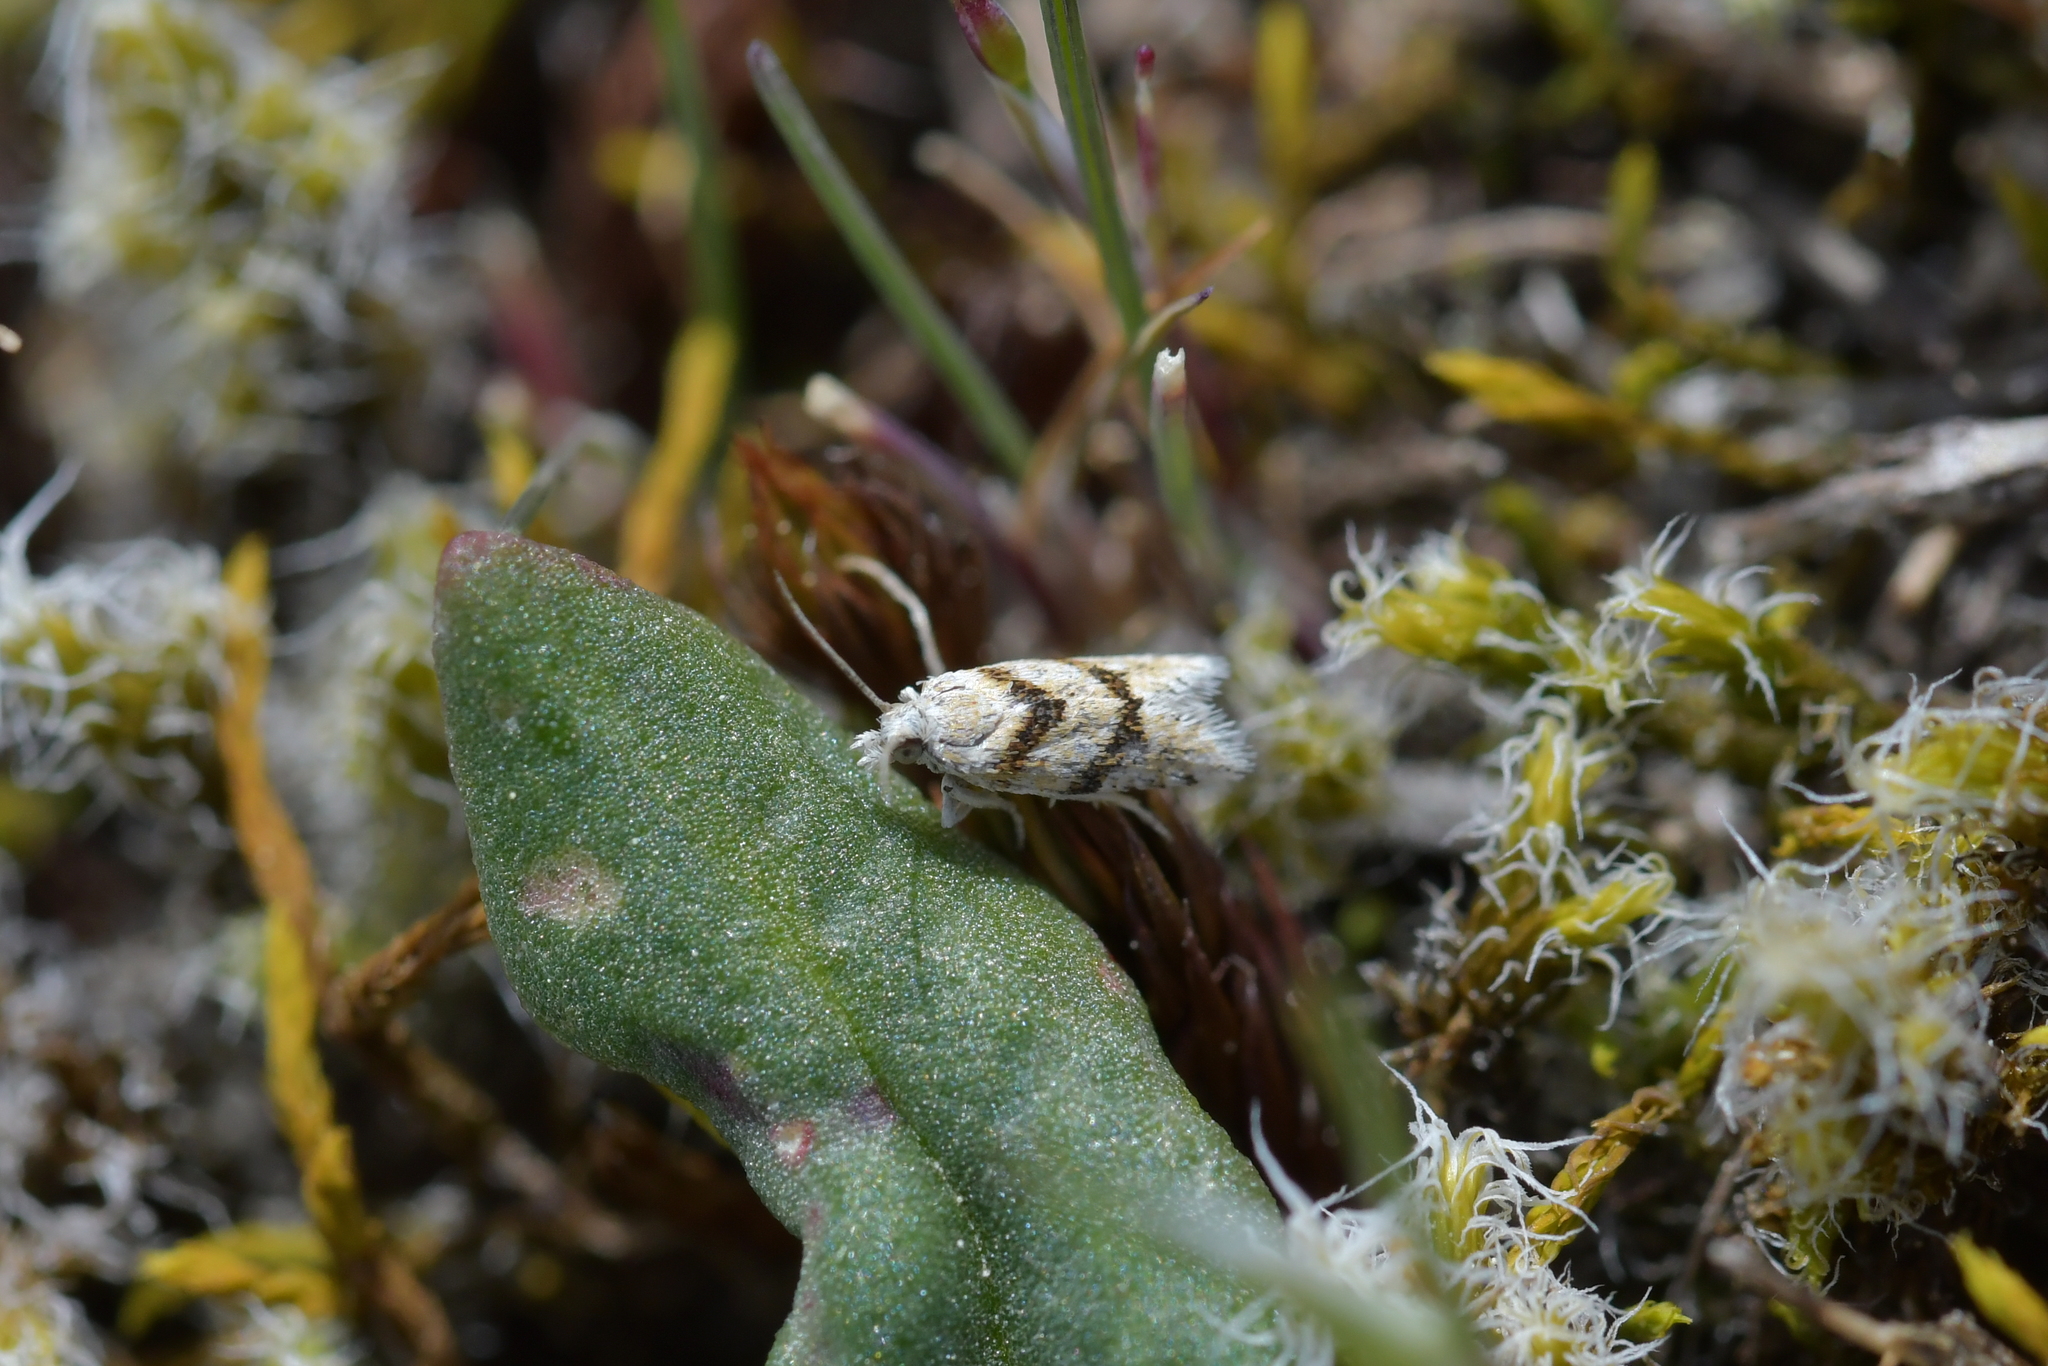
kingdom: Animalia
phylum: Arthropoda
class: Insecta
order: Lepidoptera
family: Tortricidae
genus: Eurythecta
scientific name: Eurythecta robusta
